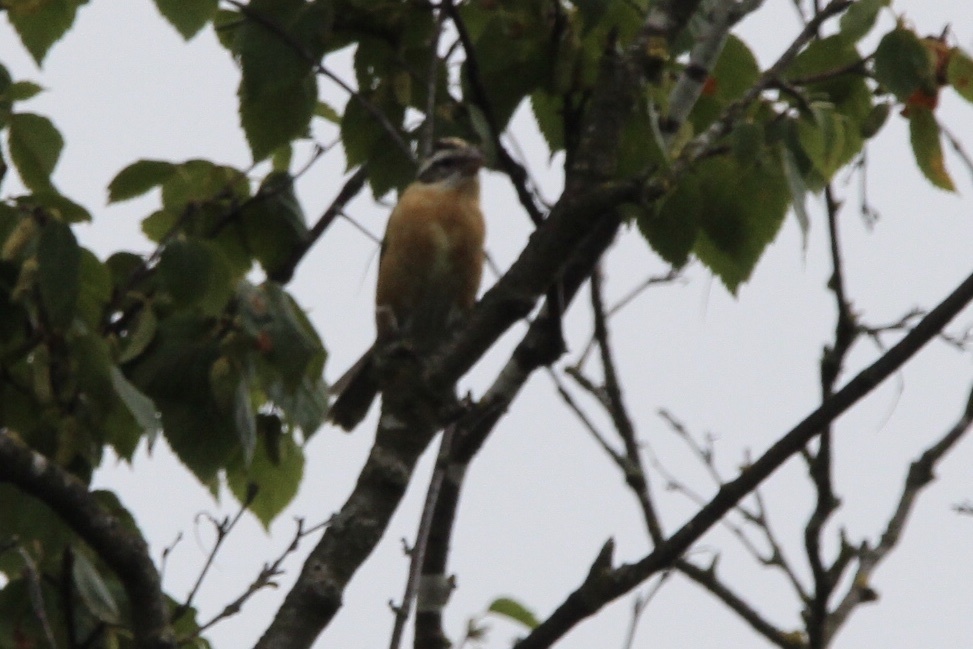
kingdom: Animalia
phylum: Chordata
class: Aves
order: Passeriformes
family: Cardinalidae
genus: Pheucticus
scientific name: Pheucticus melanocephalus
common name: Black-headed grosbeak
